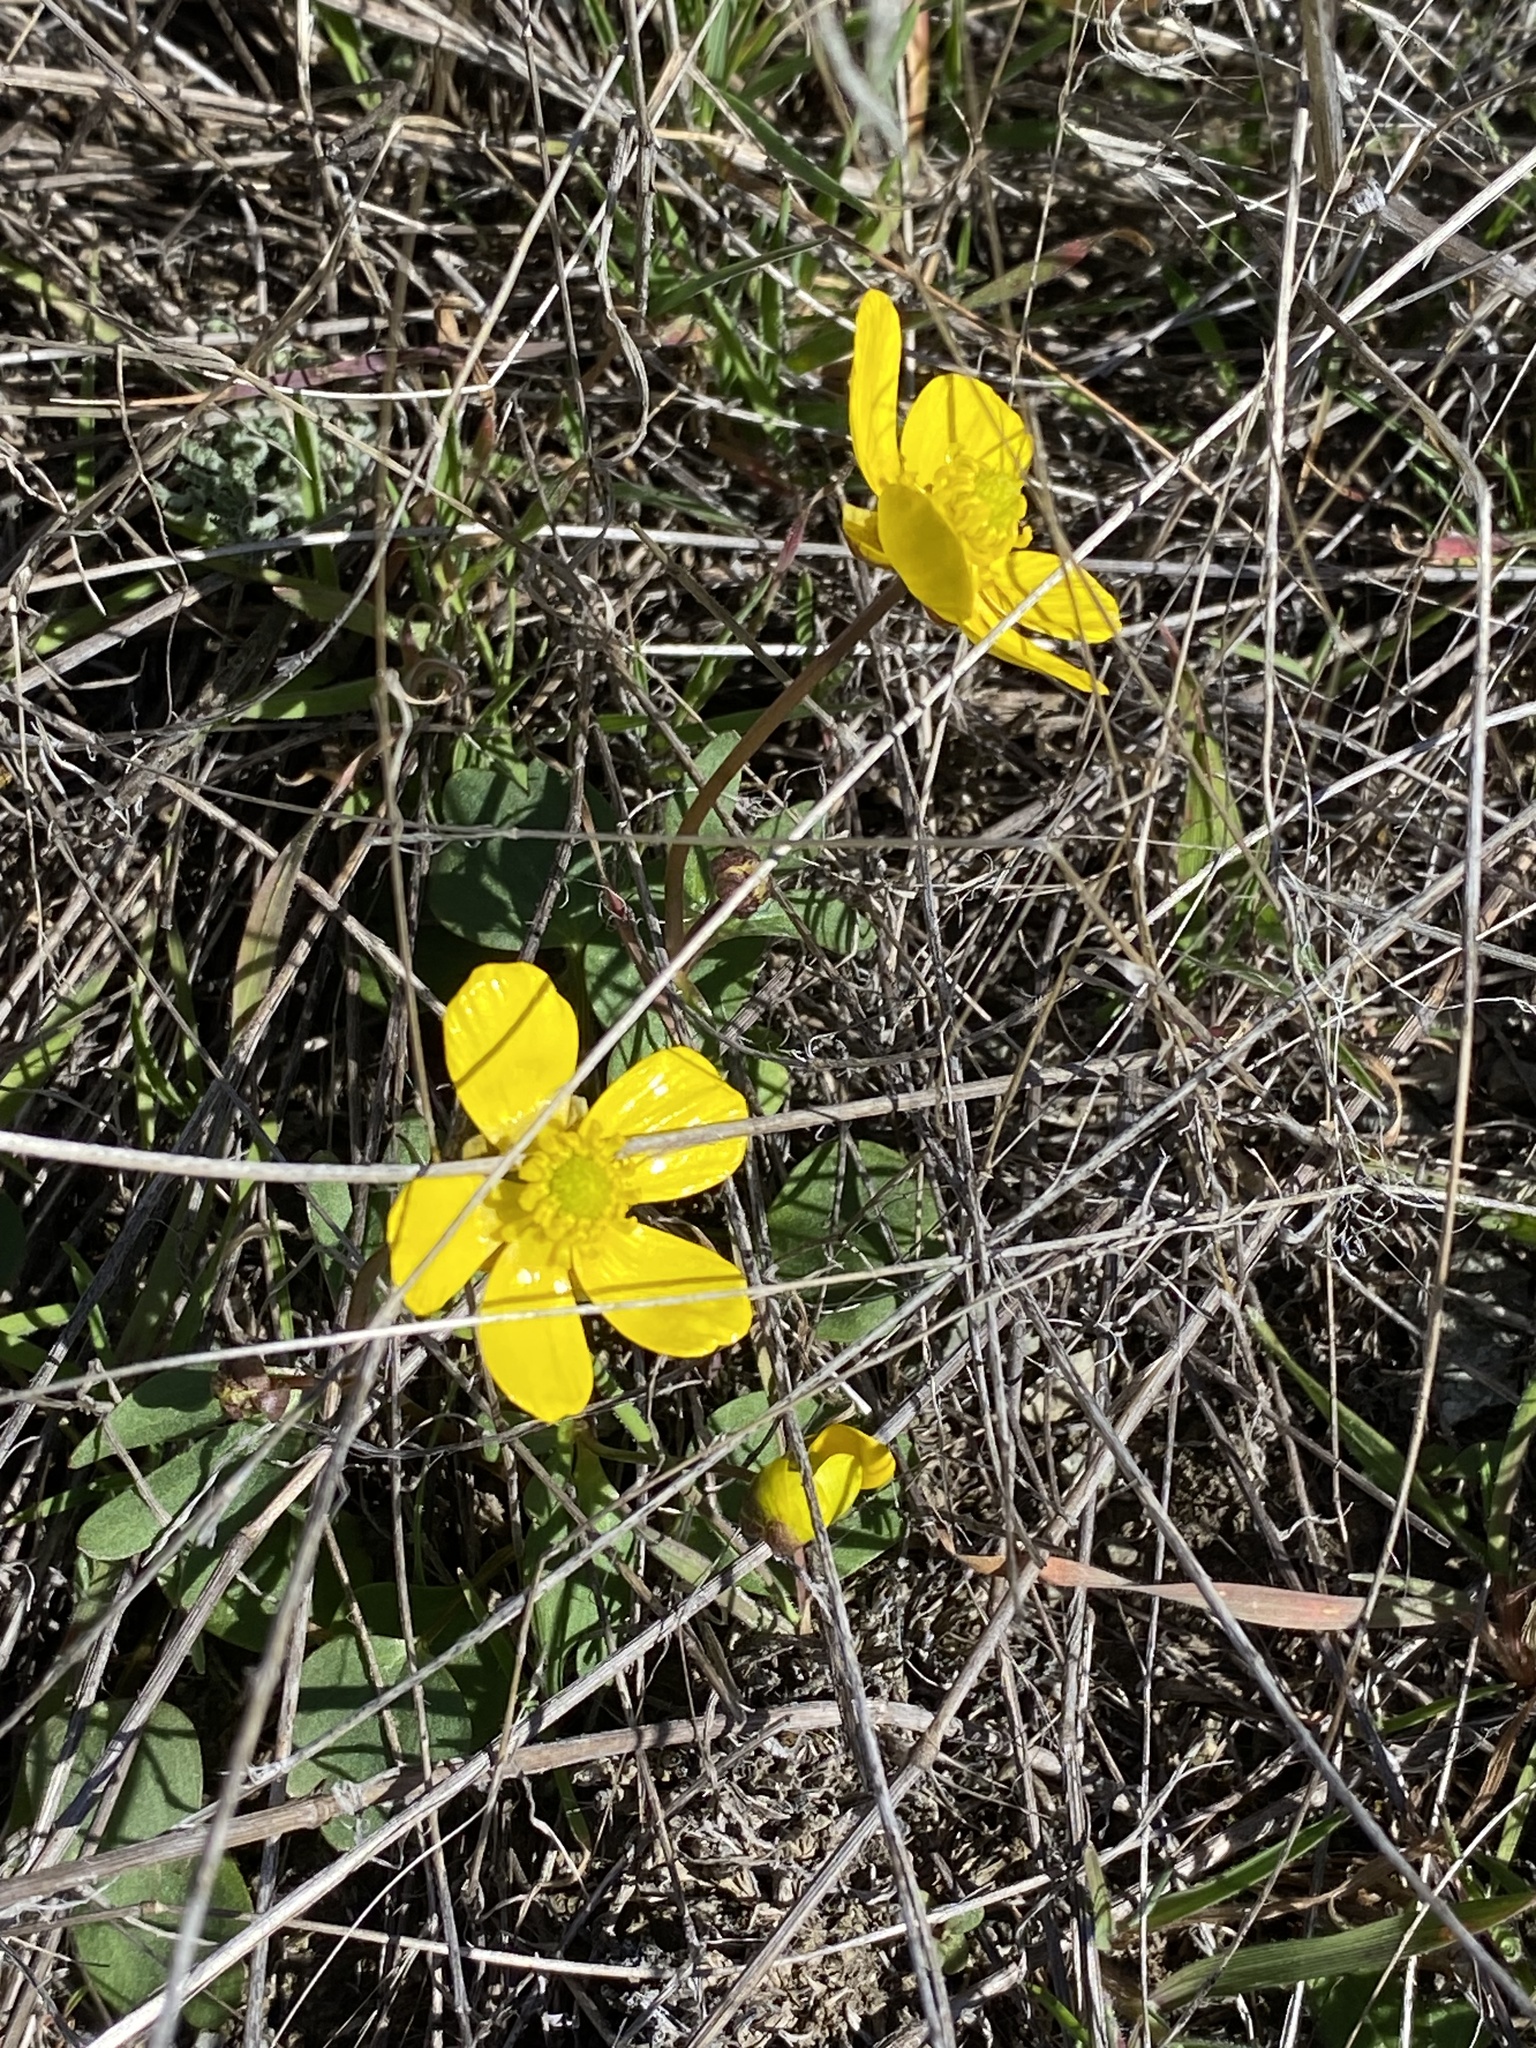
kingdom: Plantae
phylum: Tracheophyta
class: Magnoliopsida
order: Ranunculales
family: Ranunculaceae
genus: Ranunculus
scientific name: Ranunculus glaberrimus
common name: Sagebrush buttercup
